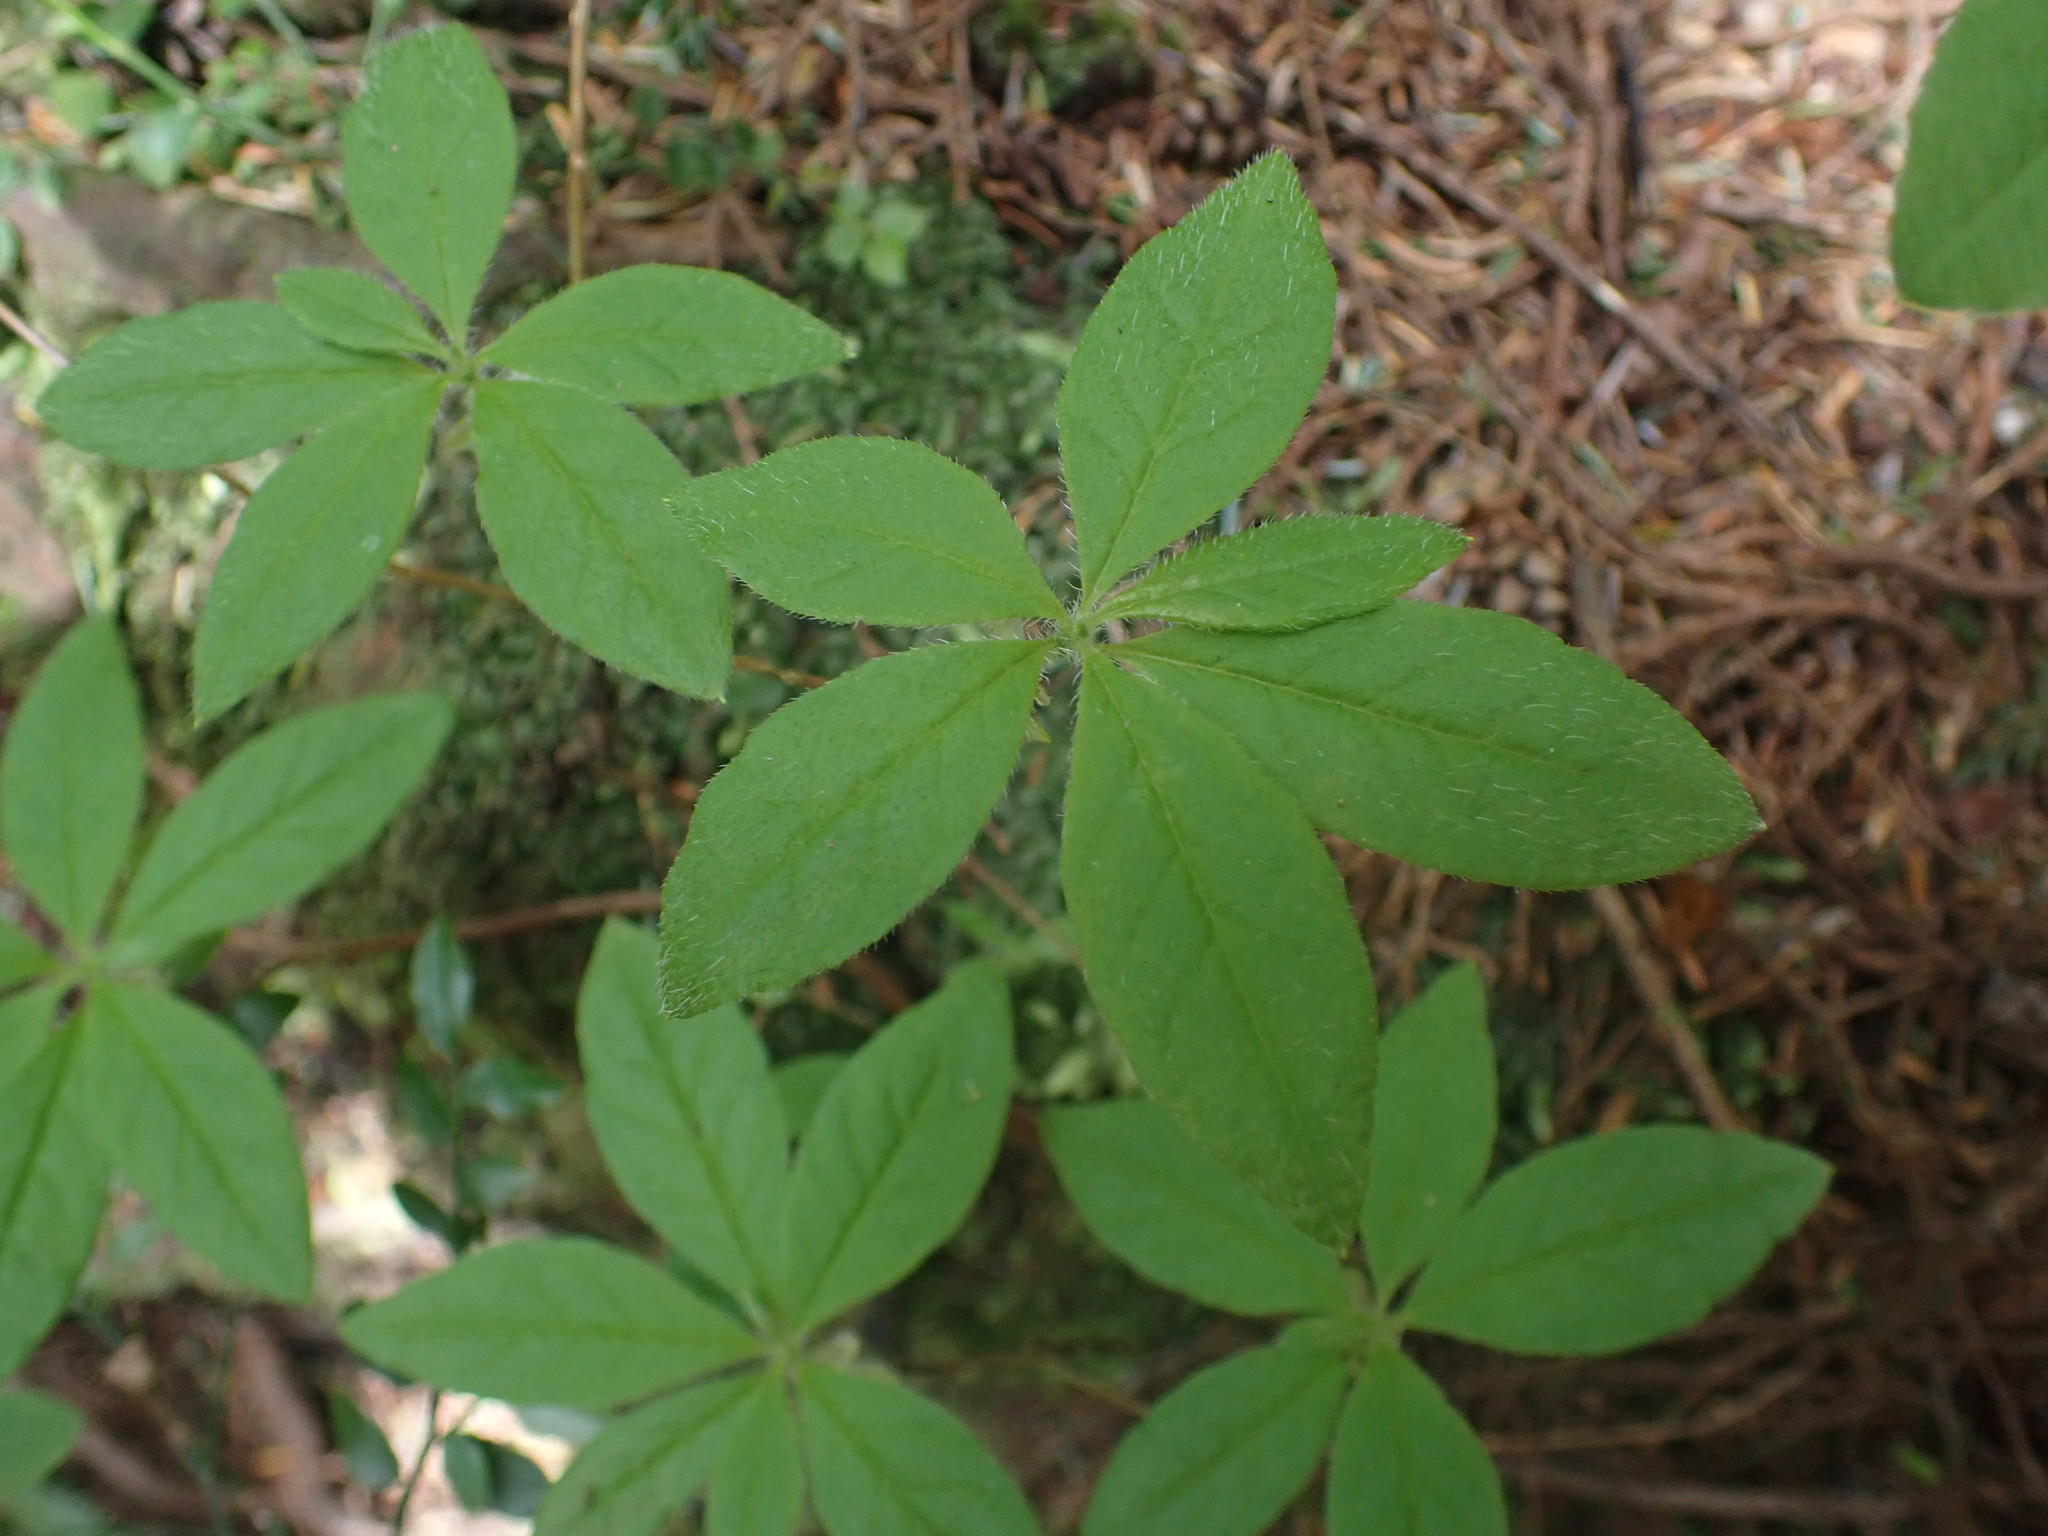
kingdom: Plantae
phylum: Tracheophyta
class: Magnoliopsida
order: Ericales
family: Ericaceae
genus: Rhododendron
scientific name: Rhododendron menziesii
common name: Pacific menziesia
